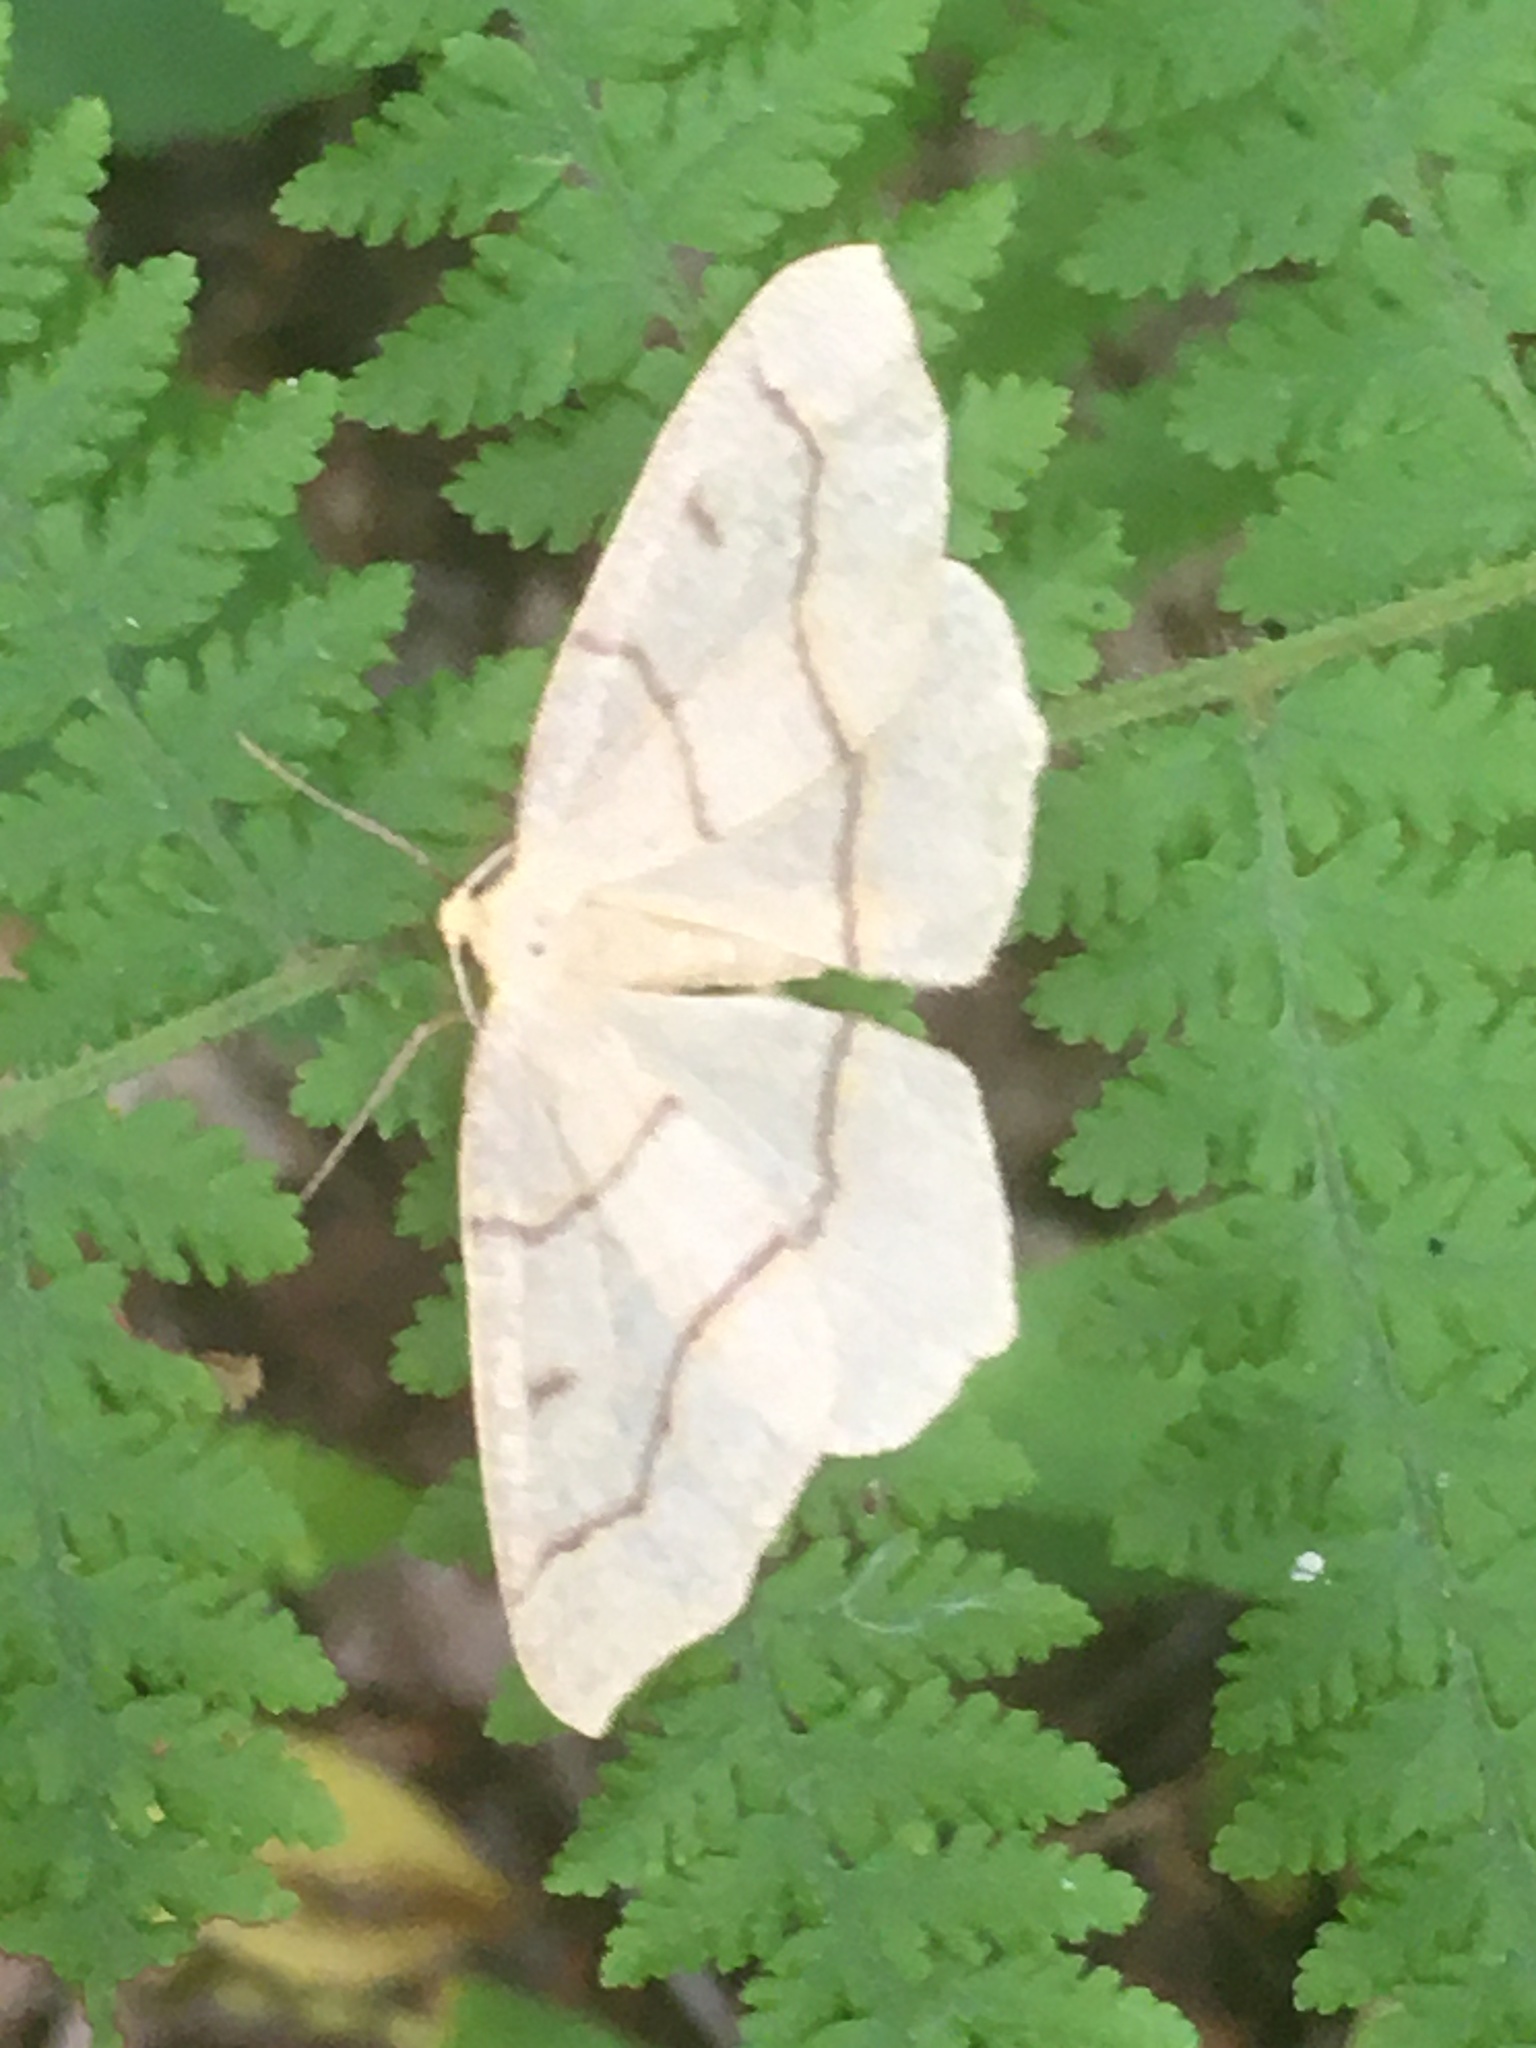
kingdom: Animalia
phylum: Arthropoda
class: Insecta
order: Lepidoptera
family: Geometridae
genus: Lambdina
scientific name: Lambdina fiscellaria
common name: Hemlock looper
